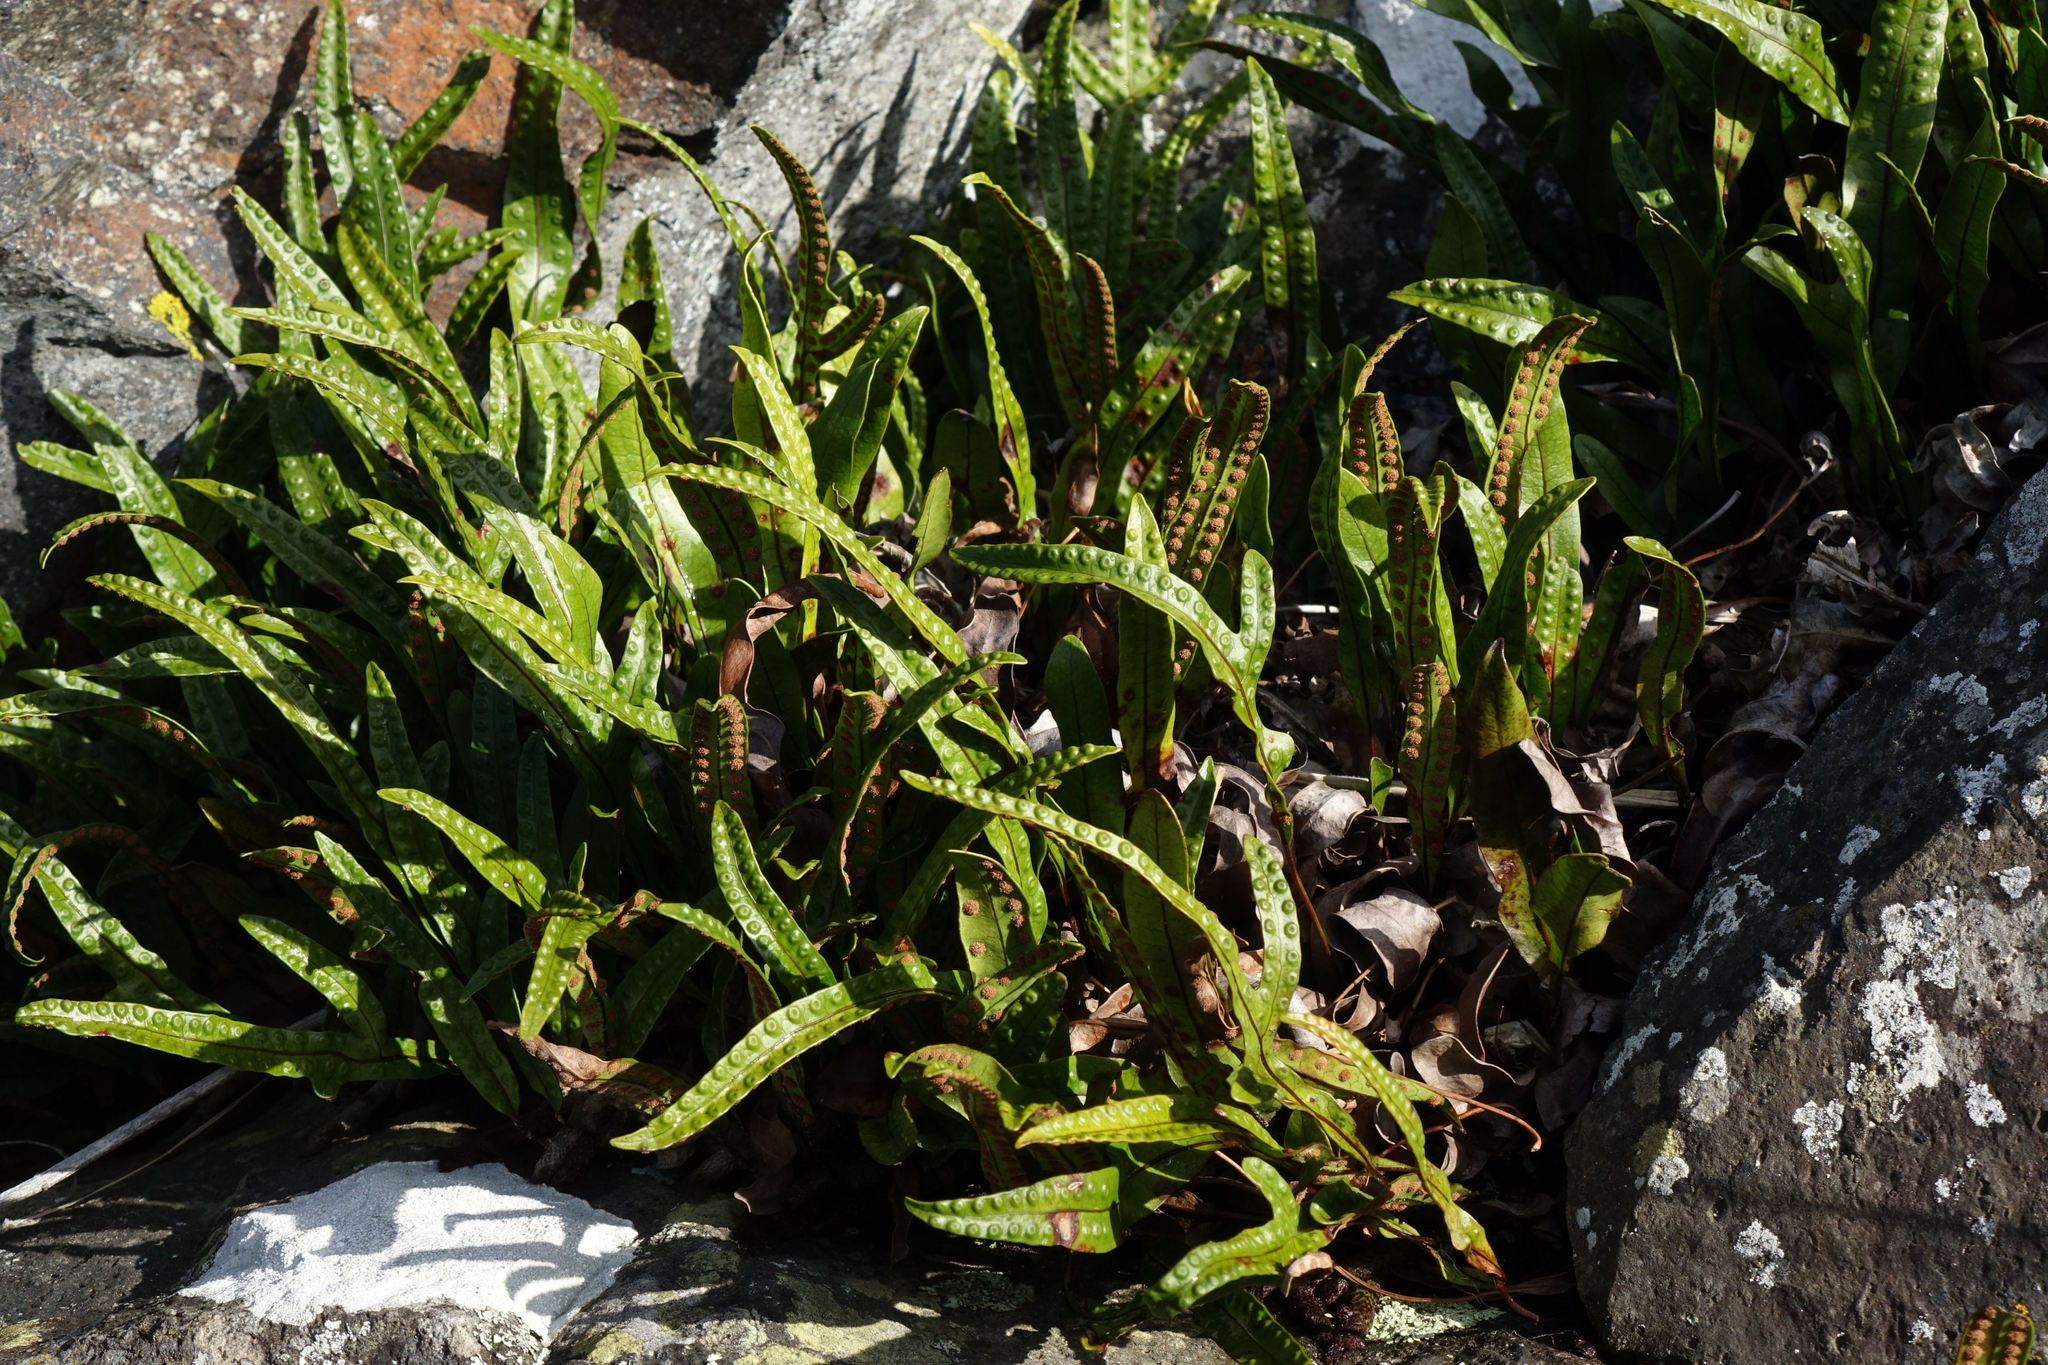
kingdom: Plantae
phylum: Tracheophyta
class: Polypodiopsida
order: Polypodiales
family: Polypodiaceae
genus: Lecanopteris
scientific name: Lecanopteris pustulata
